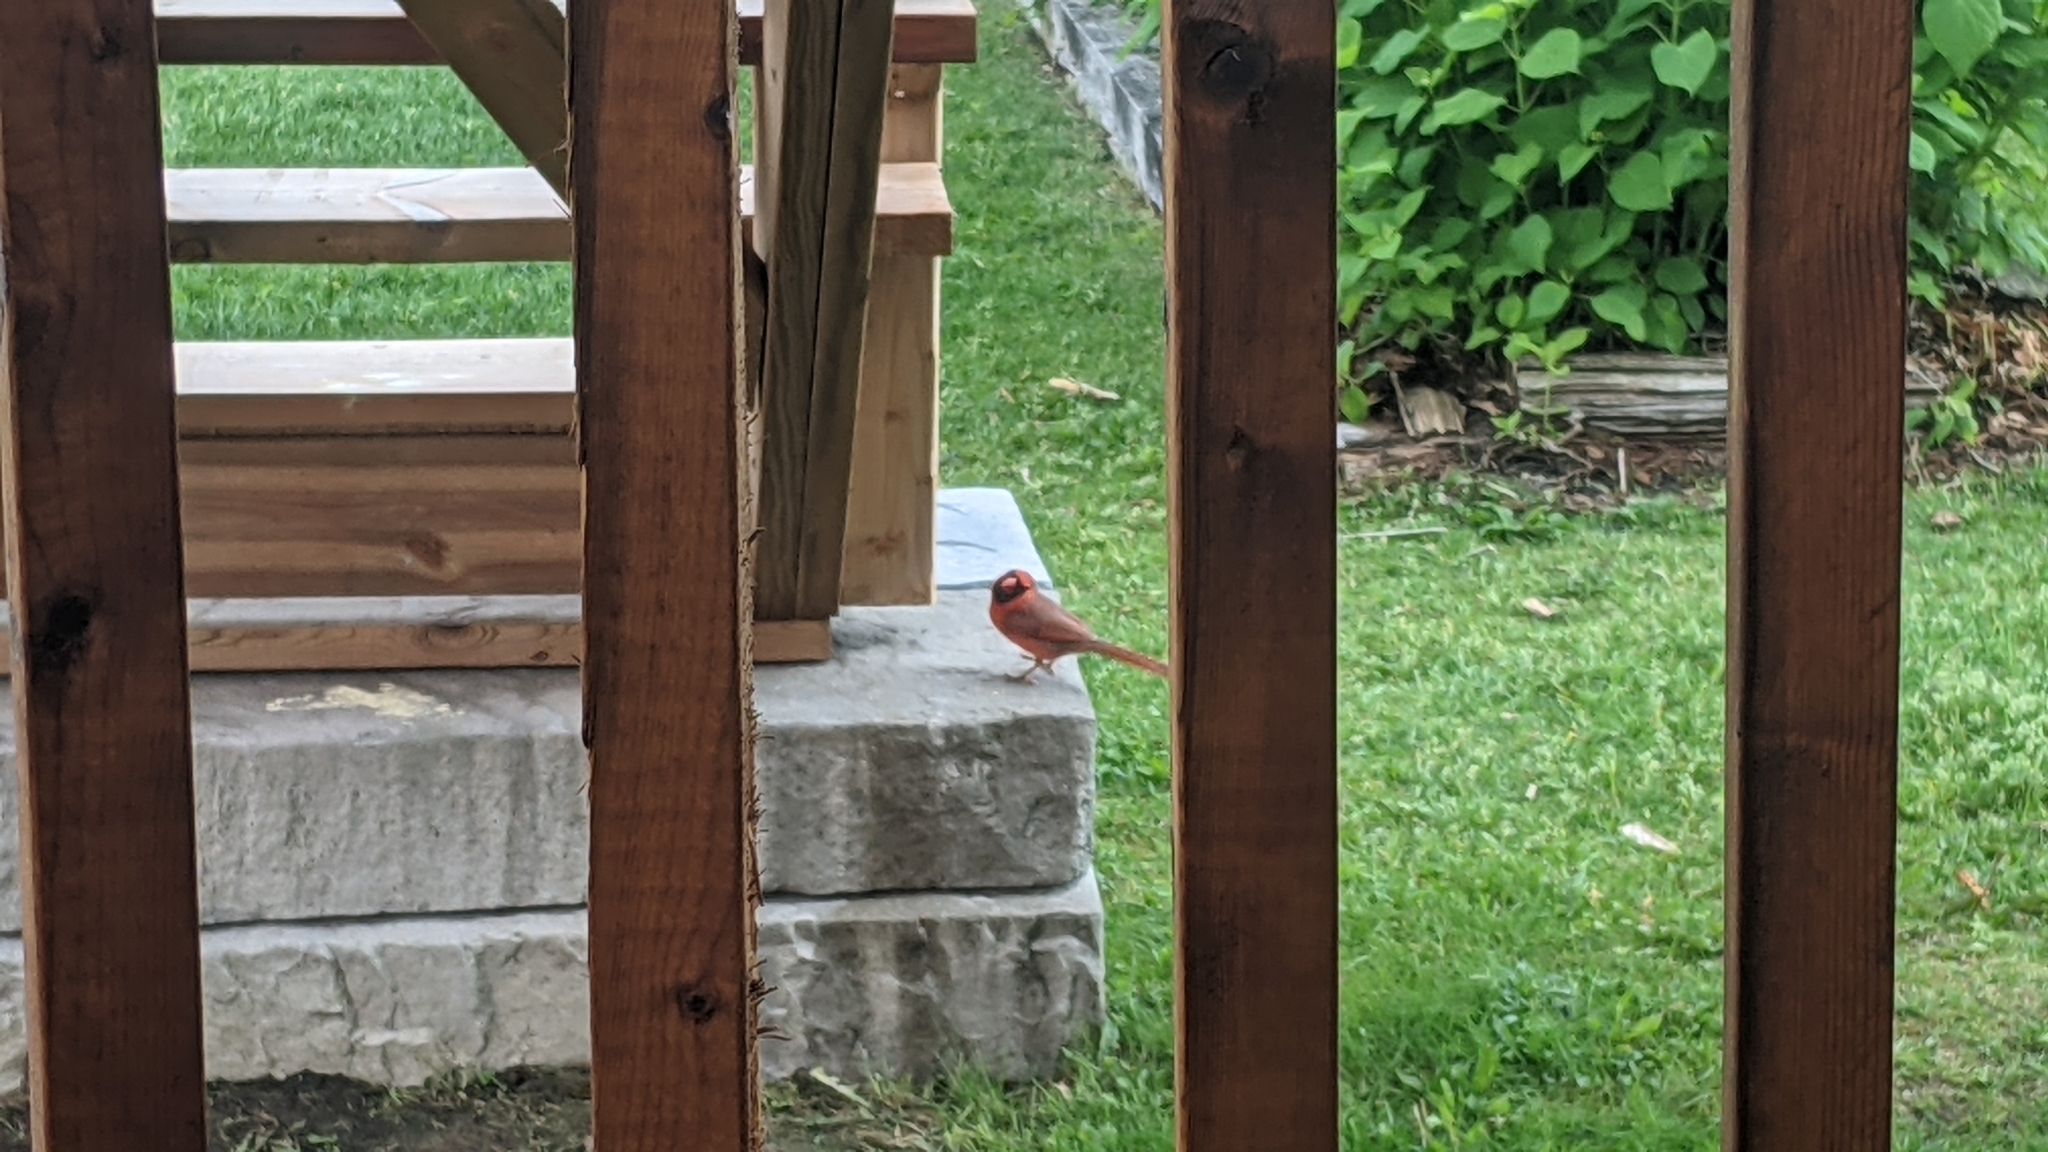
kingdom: Animalia
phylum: Chordata
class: Aves
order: Passeriformes
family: Cardinalidae
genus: Cardinalis
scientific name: Cardinalis cardinalis
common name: Northern cardinal
